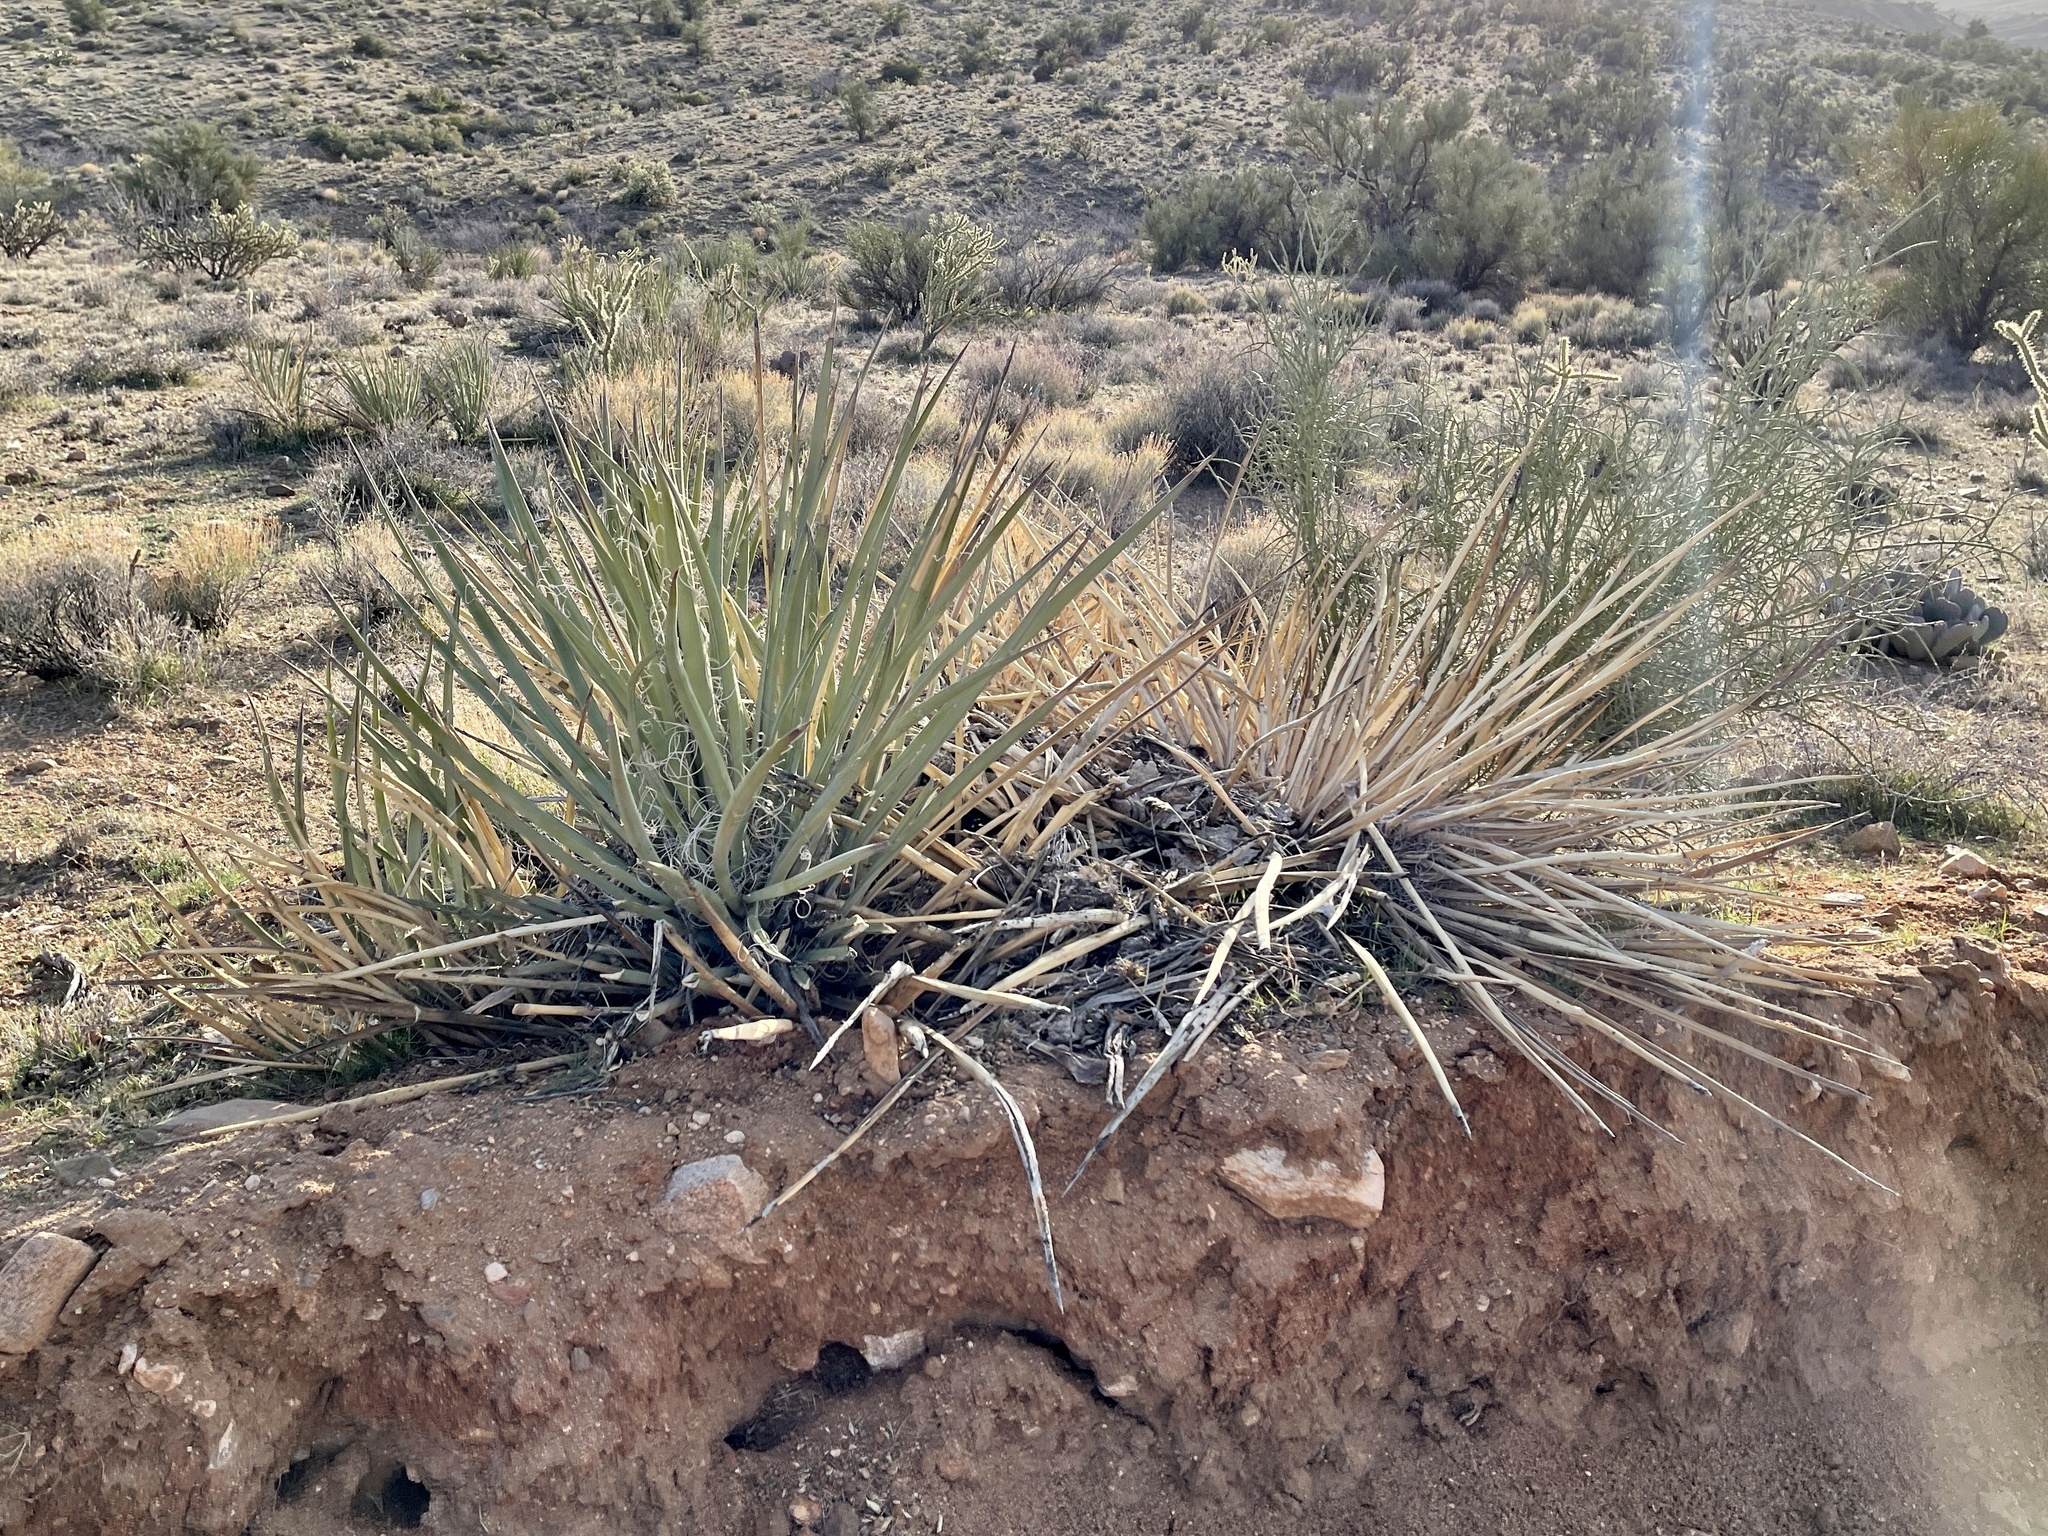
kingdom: Plantae
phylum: Tracheophyta
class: Liliopsida
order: Asparagales
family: Asparagaceae
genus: Yucca
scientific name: Yucca baccata
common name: Banana yucca
